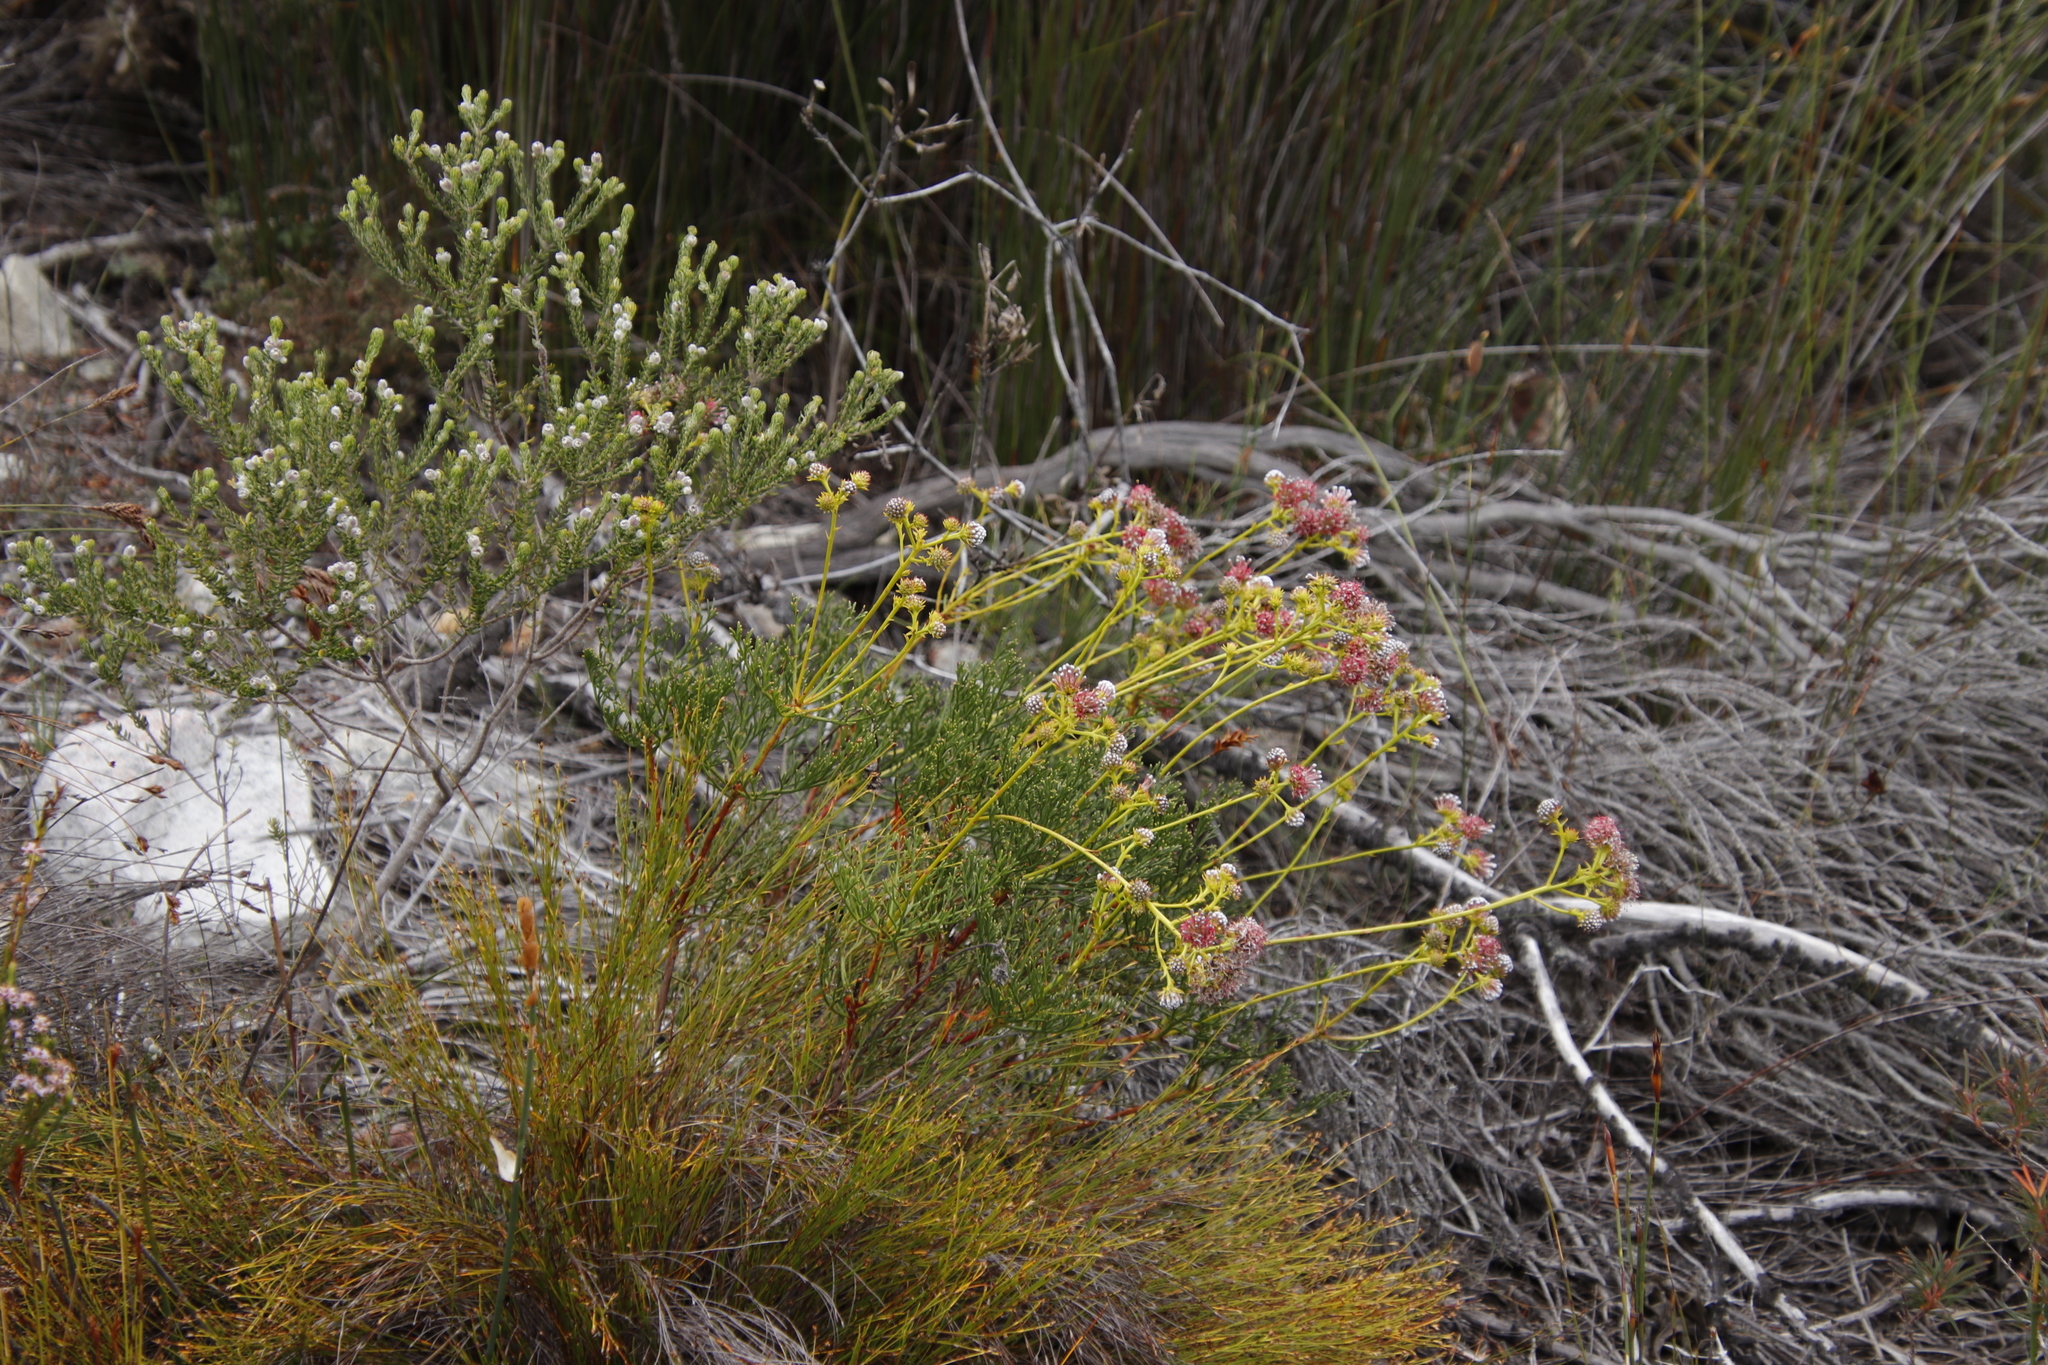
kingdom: Plantae
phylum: Tracheophyta
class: Magnoliopsida
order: Proteales
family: Proteaceae
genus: Serruria
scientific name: Serruria elongata
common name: Long-stalk spiderhead
